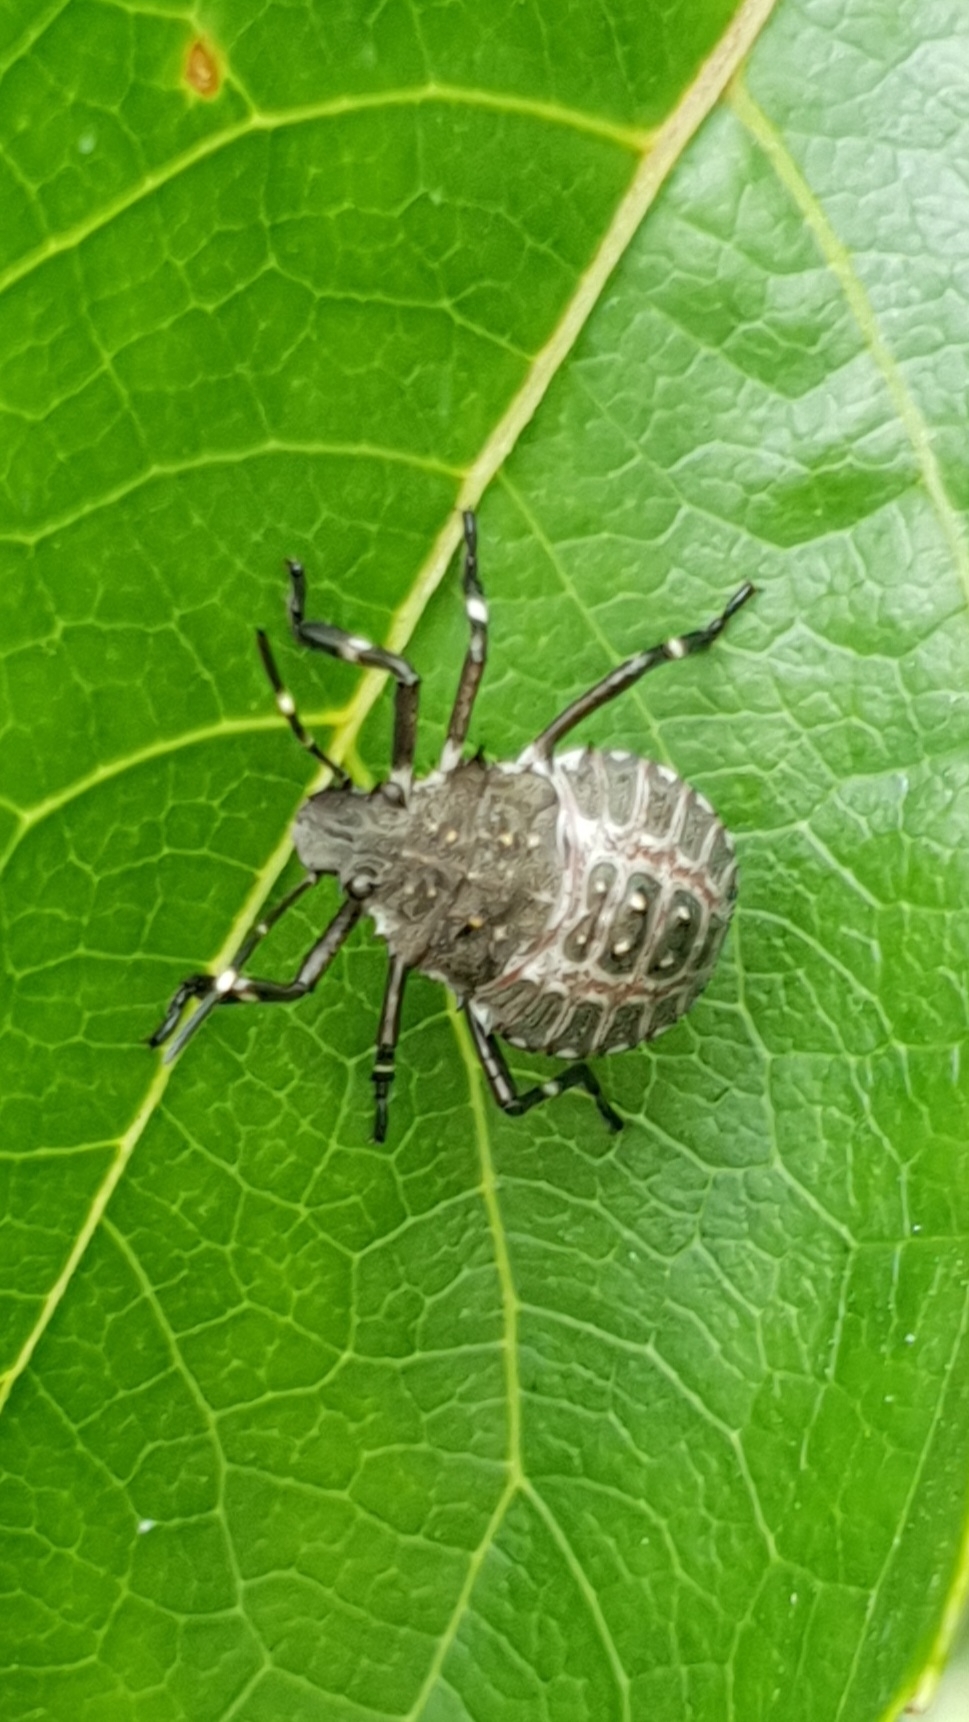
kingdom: Animalia
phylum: Arthropoda
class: Insecta
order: Hemiptera
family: Pentatomidae
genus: Halyomorpha
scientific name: Halyomorpha halys
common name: Brown marmorated stink bug
